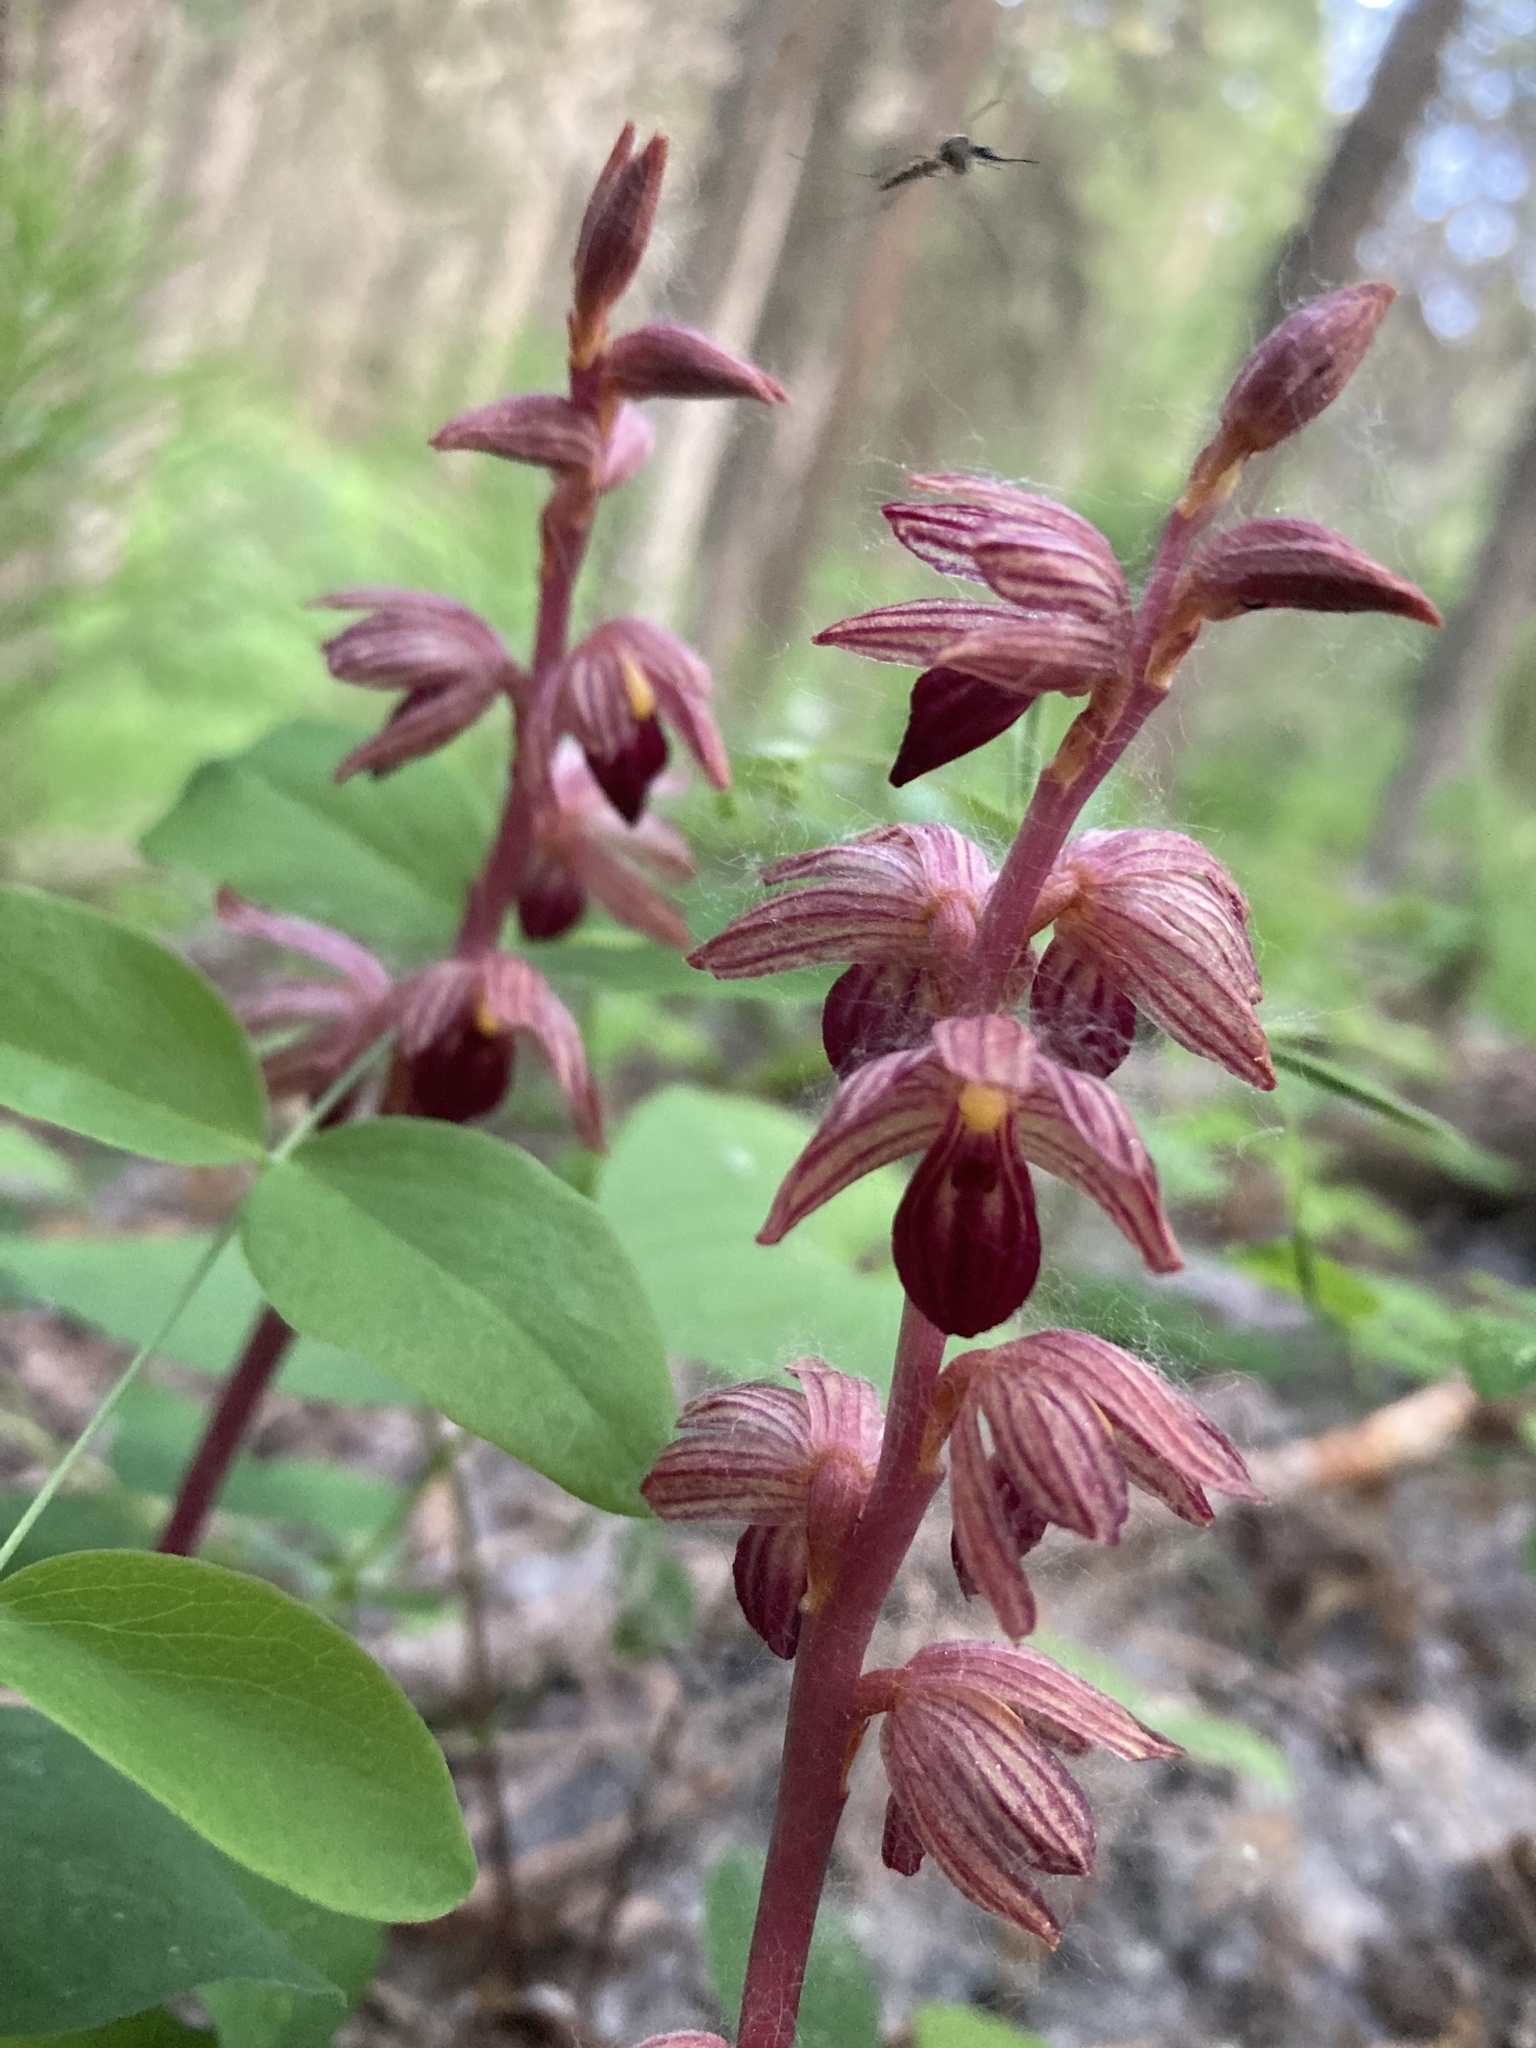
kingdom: Plantae
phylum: Tracheophyta
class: Liliopsida
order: Asparagales
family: Orchidaceae
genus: Corallorhiza
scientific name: Corallorhiza striata
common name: Hooded coralroot
